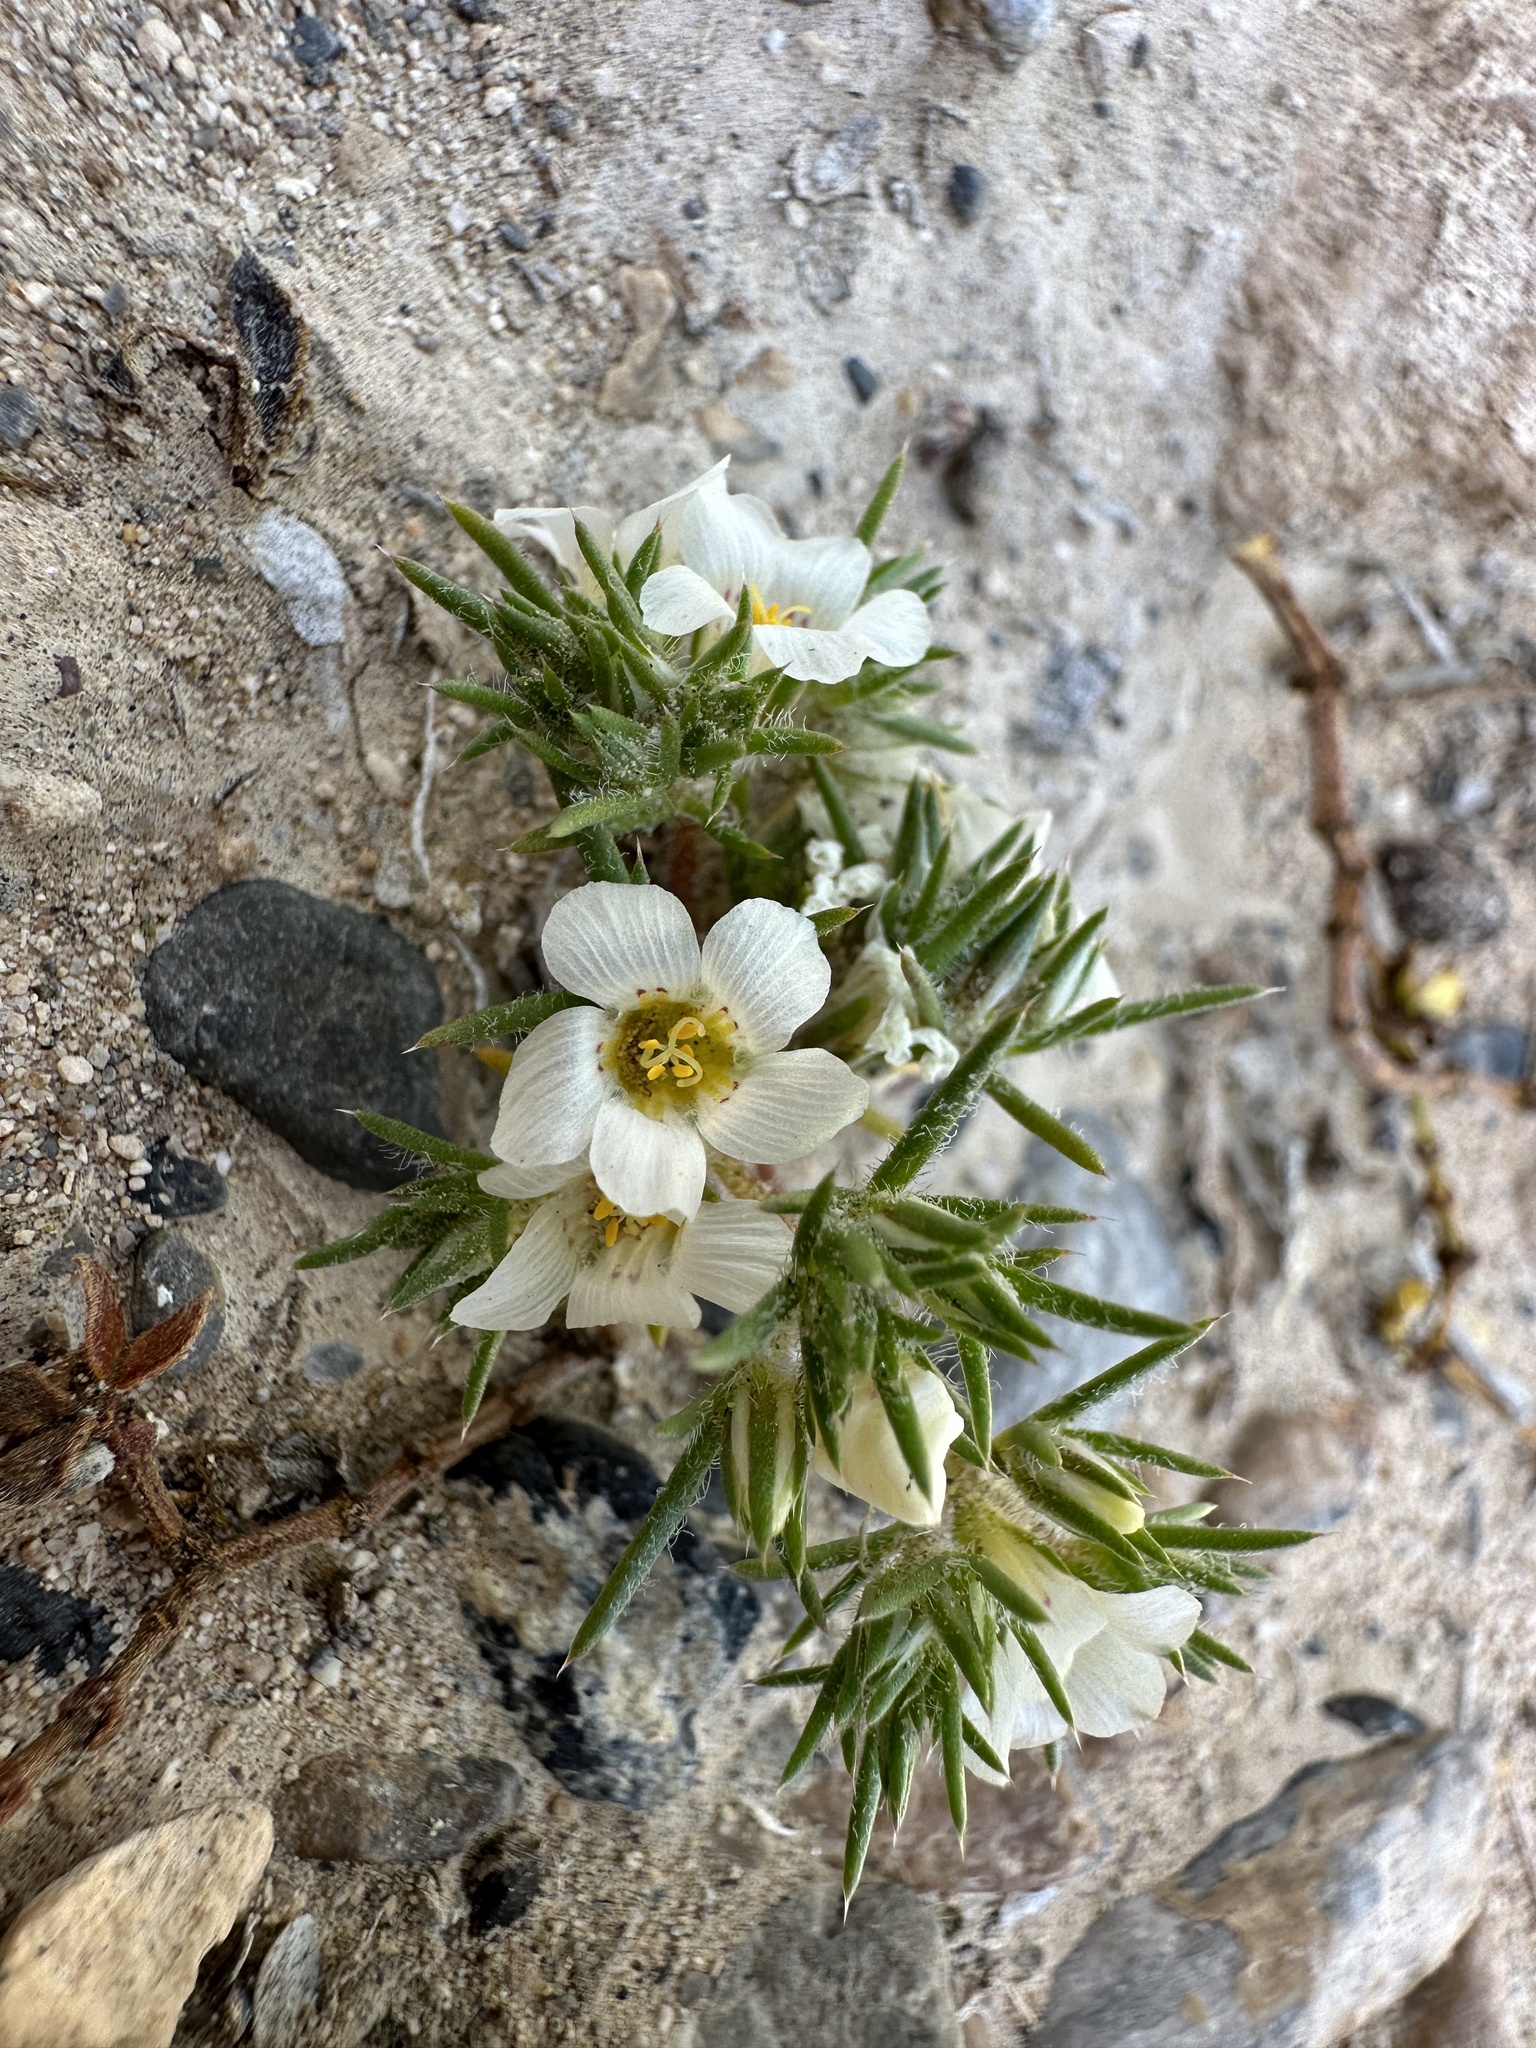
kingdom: Plantae
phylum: Tracheophyta
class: Magnoliopsida
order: Ericales
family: Polemoniaceae
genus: Linanthus
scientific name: Linanthus demissus
